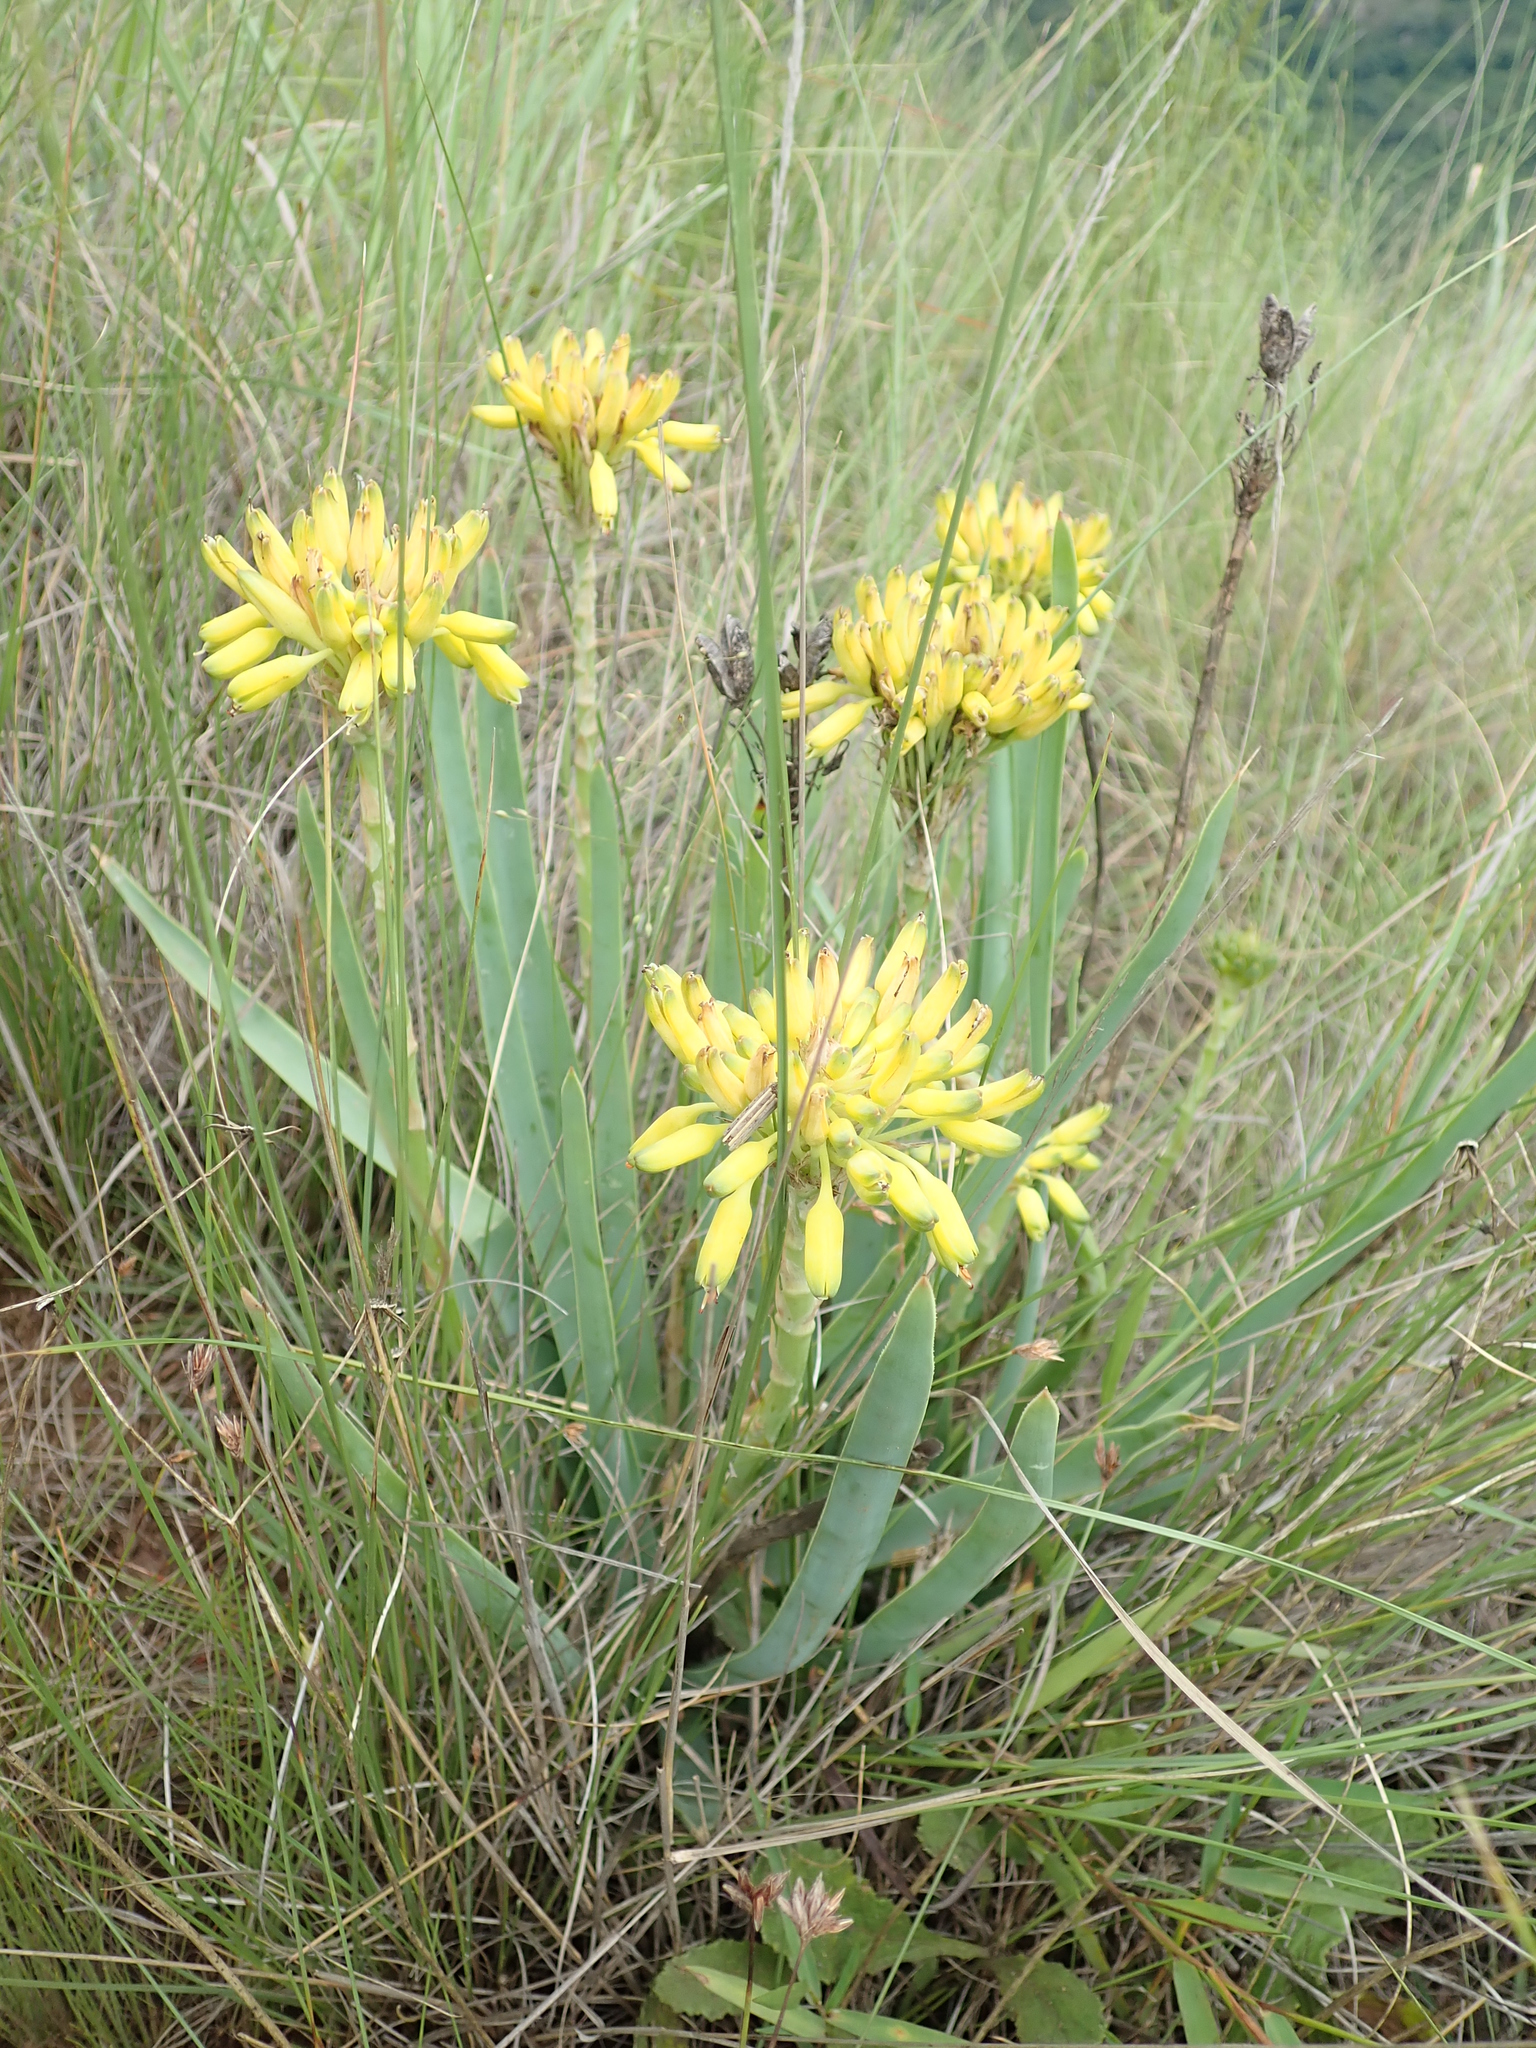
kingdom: Plantae
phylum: Tracheophyta
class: Liliopsida
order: Asparagales
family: Asphodelaceae
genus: Aloe
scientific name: Aloe kraussii
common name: Broad-leaved yellow grass aloe
